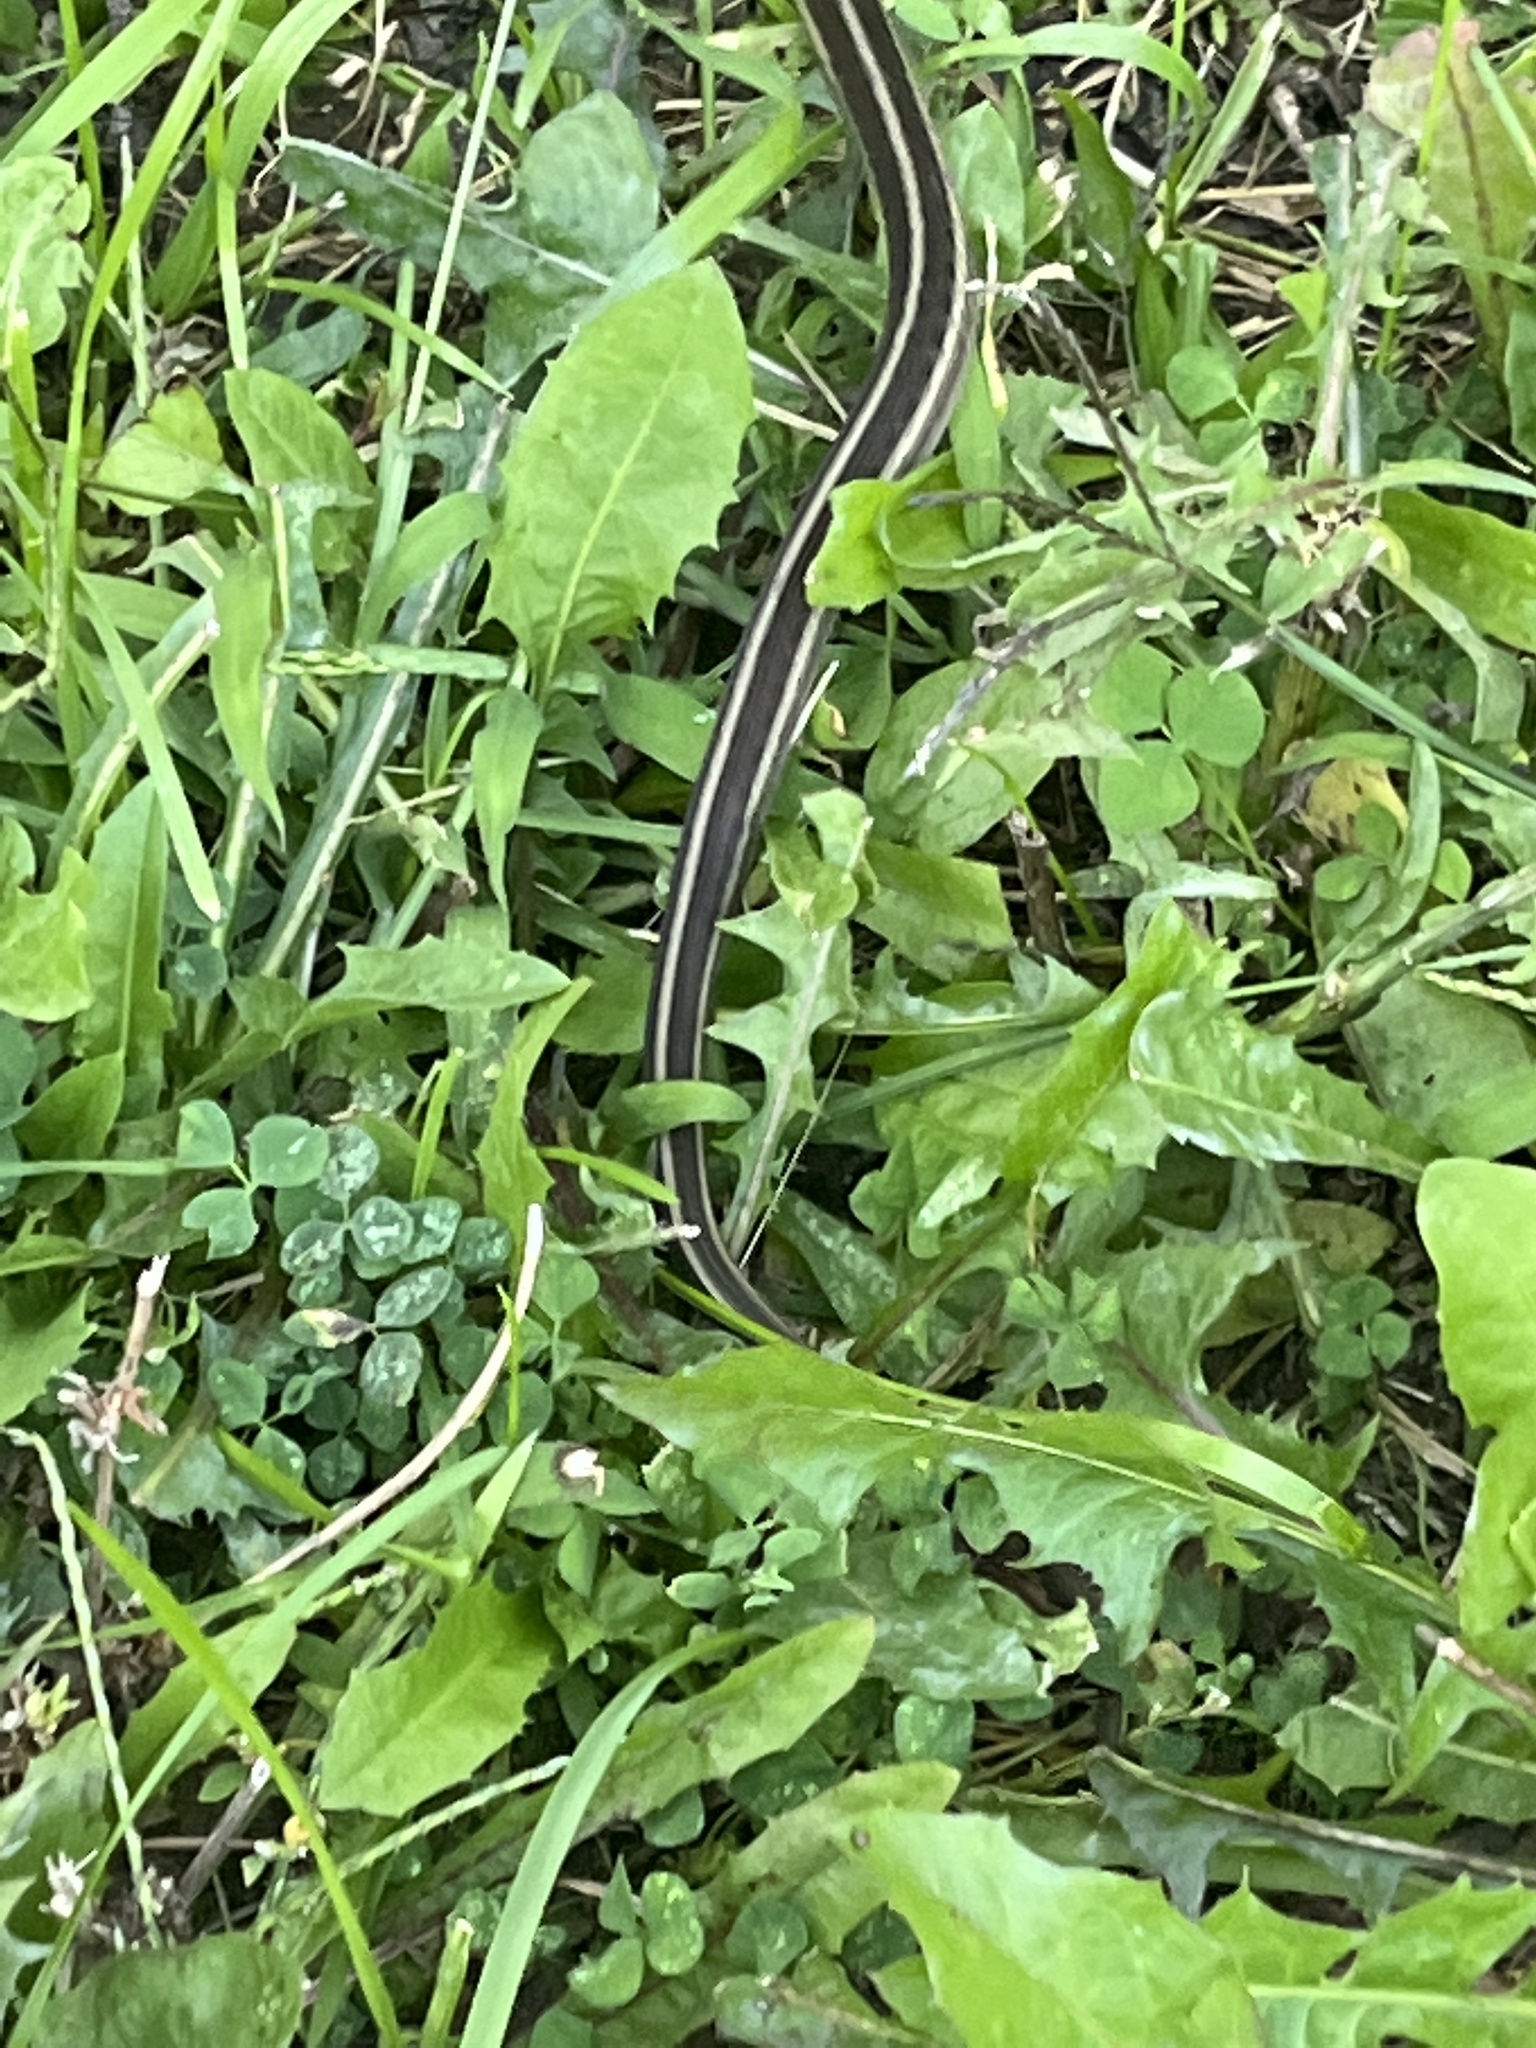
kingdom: Animalia
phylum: Chordata
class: Squamata
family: Colubridae
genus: Thamnophis
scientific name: Thamnophis sirtalis
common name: Common garter snake
